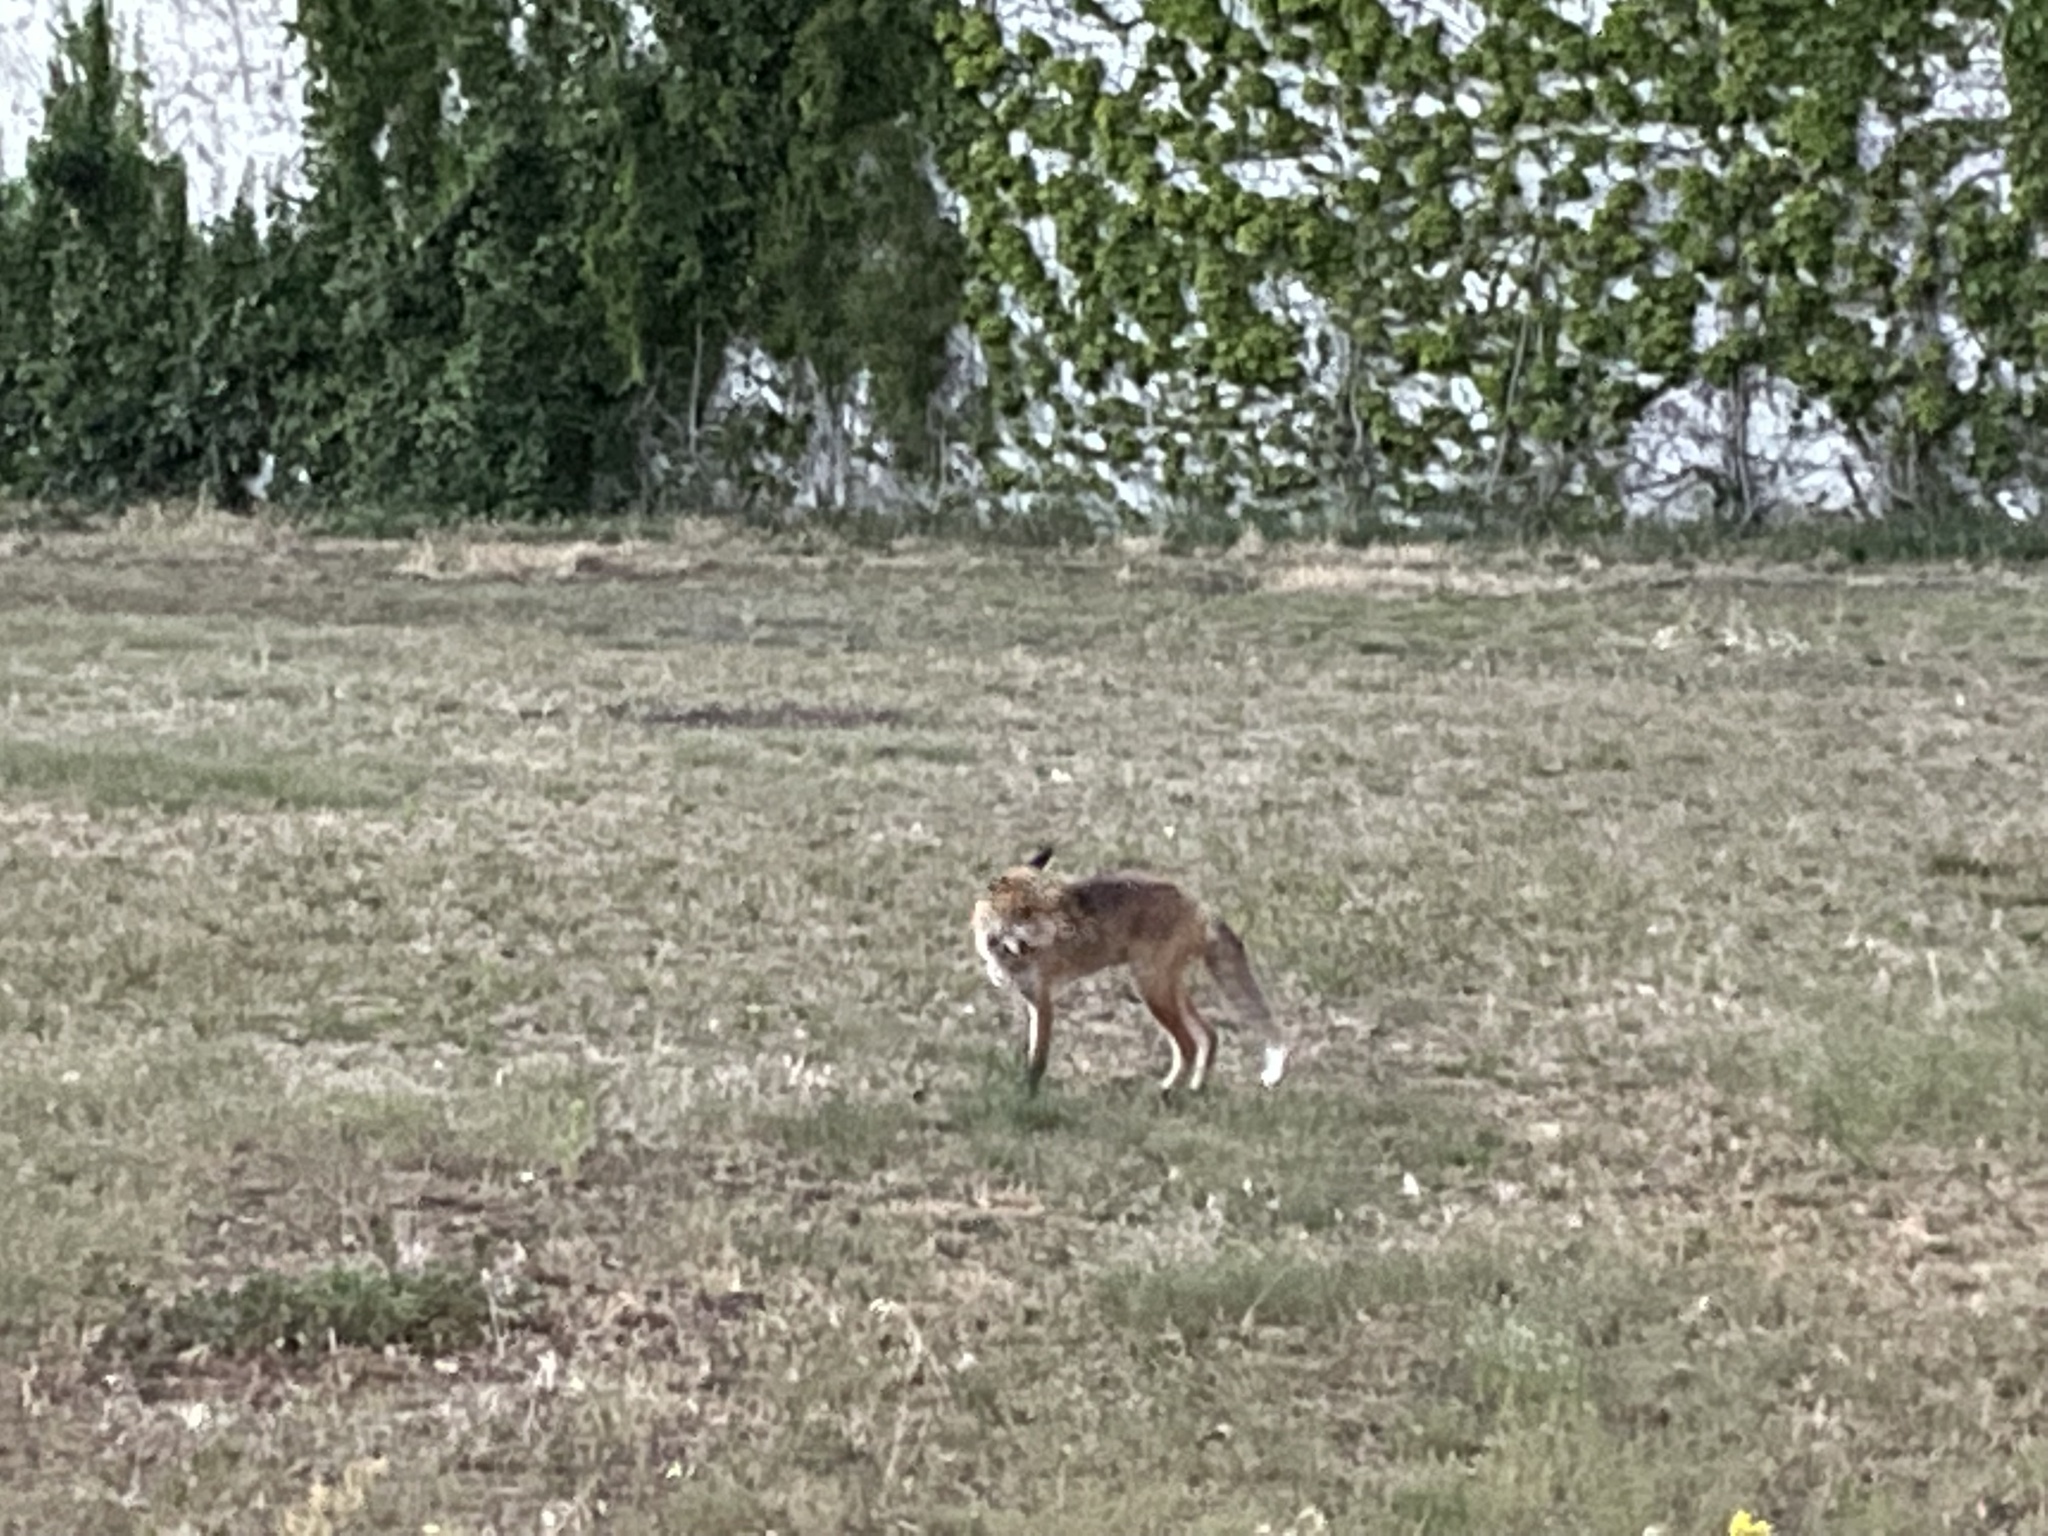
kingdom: Animalia
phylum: Chordata
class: Mammalia
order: Carnivora
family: Canidae
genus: Vulpes
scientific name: Vulpes vulpes
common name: Red fox
